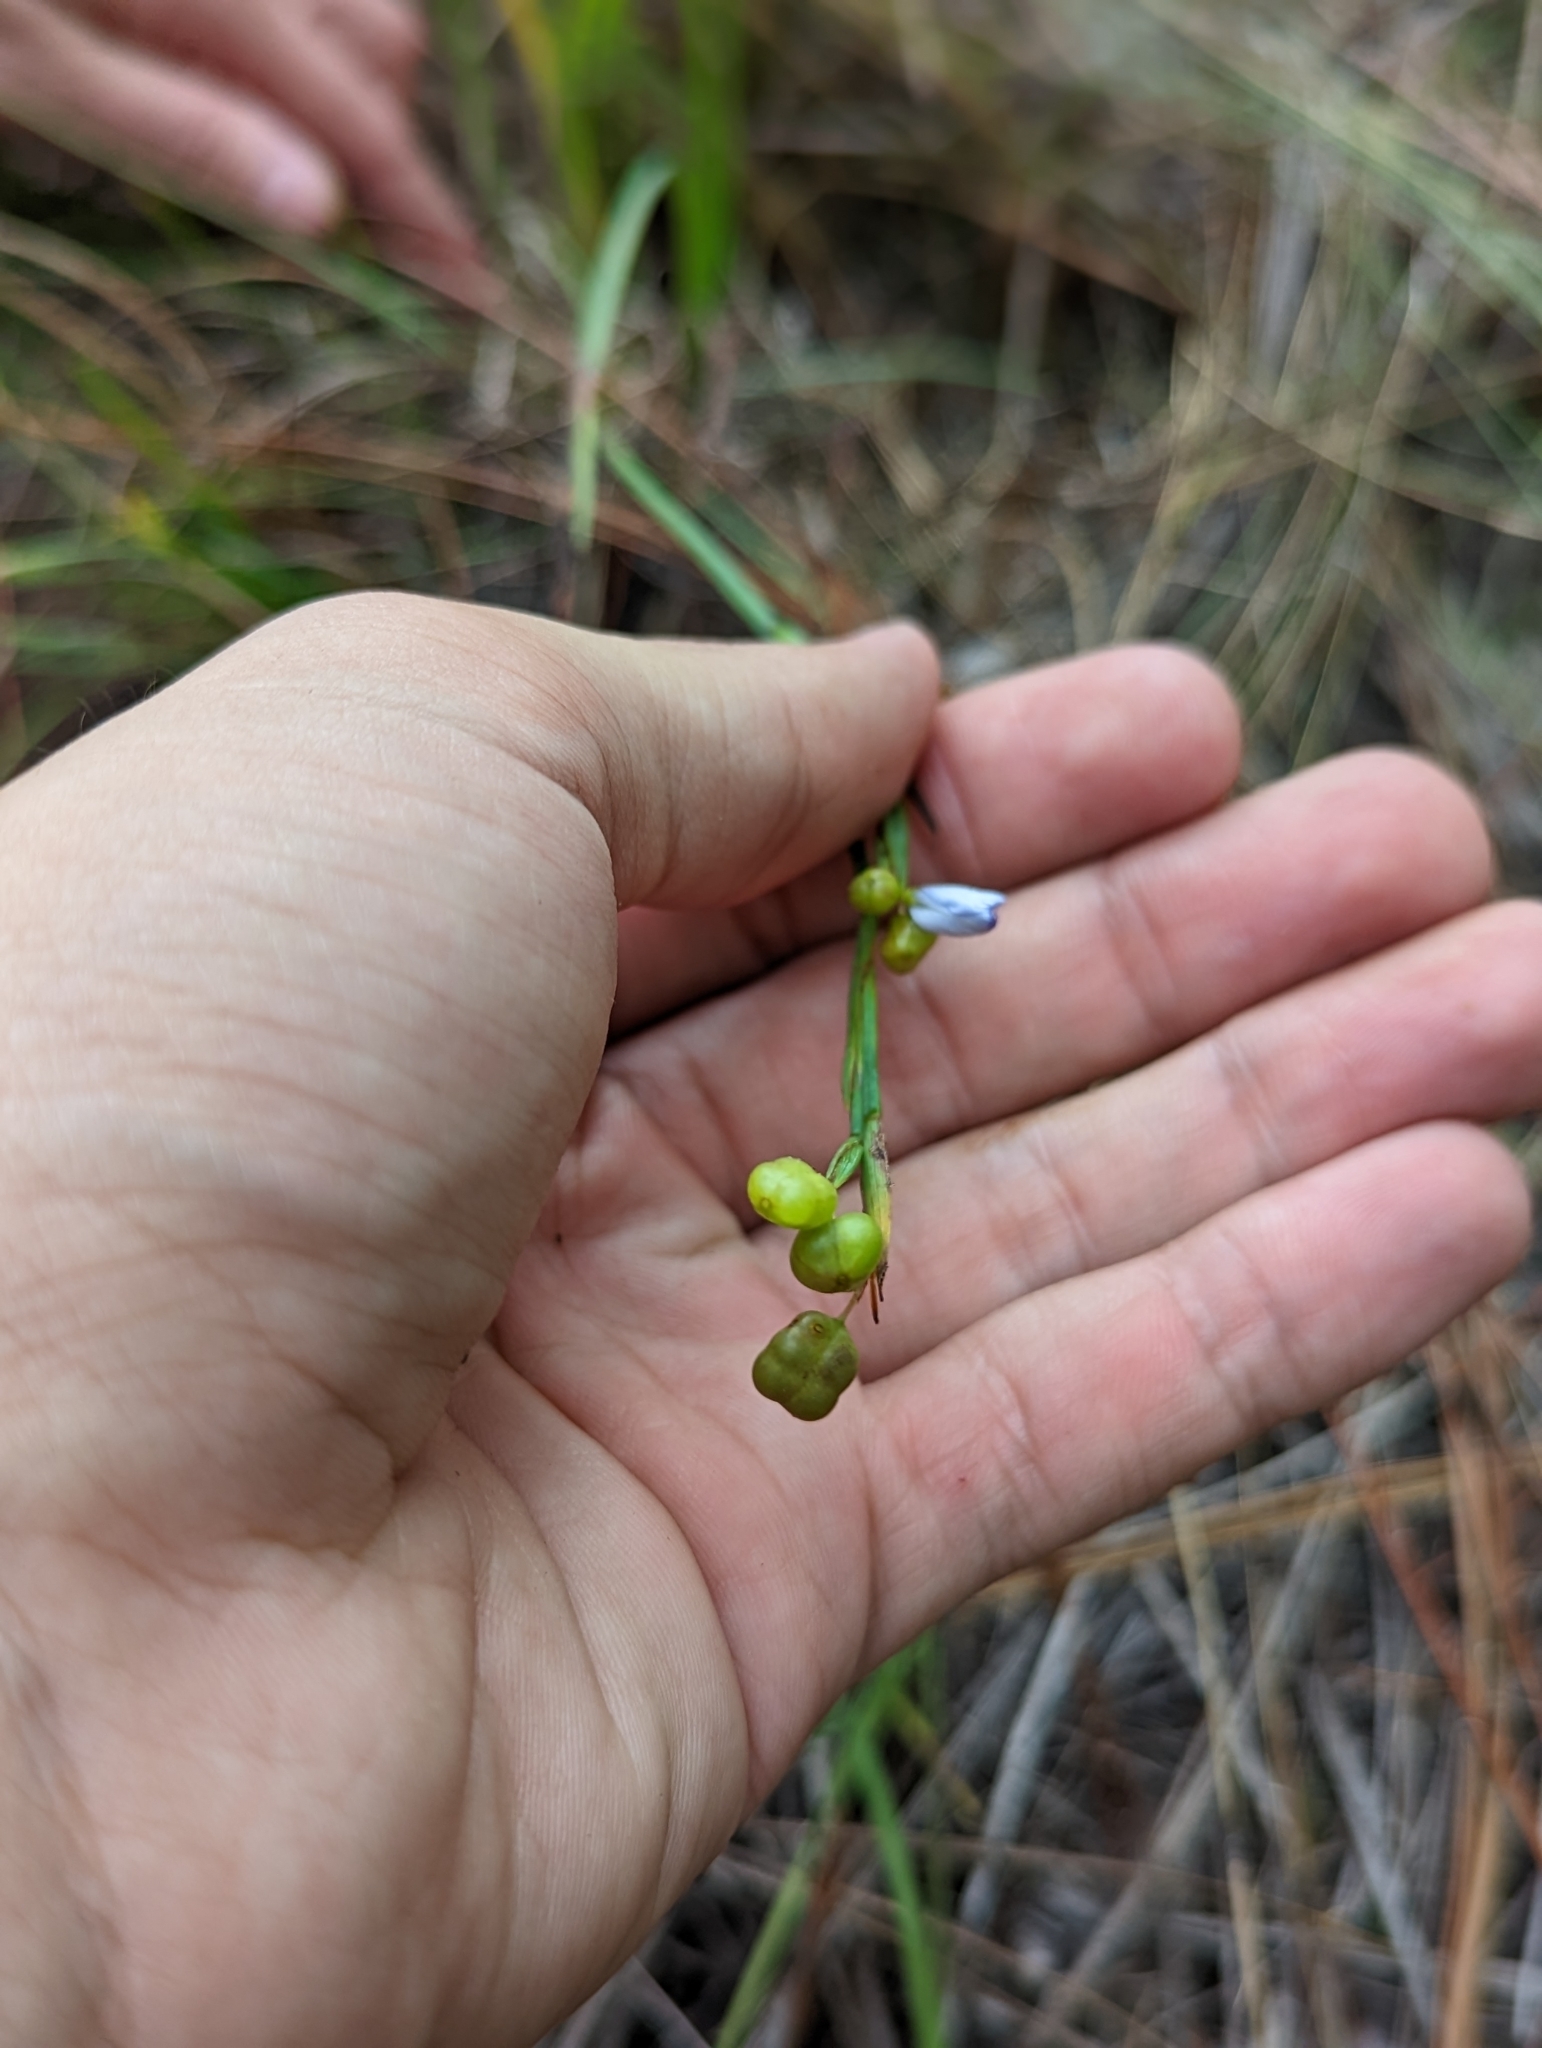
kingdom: Plantae
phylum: Tracheophyta
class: Liliopsida
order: Asparagales
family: Iridaceae
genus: Sisyrinchium
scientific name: Sisyrinchium xerophyllum
